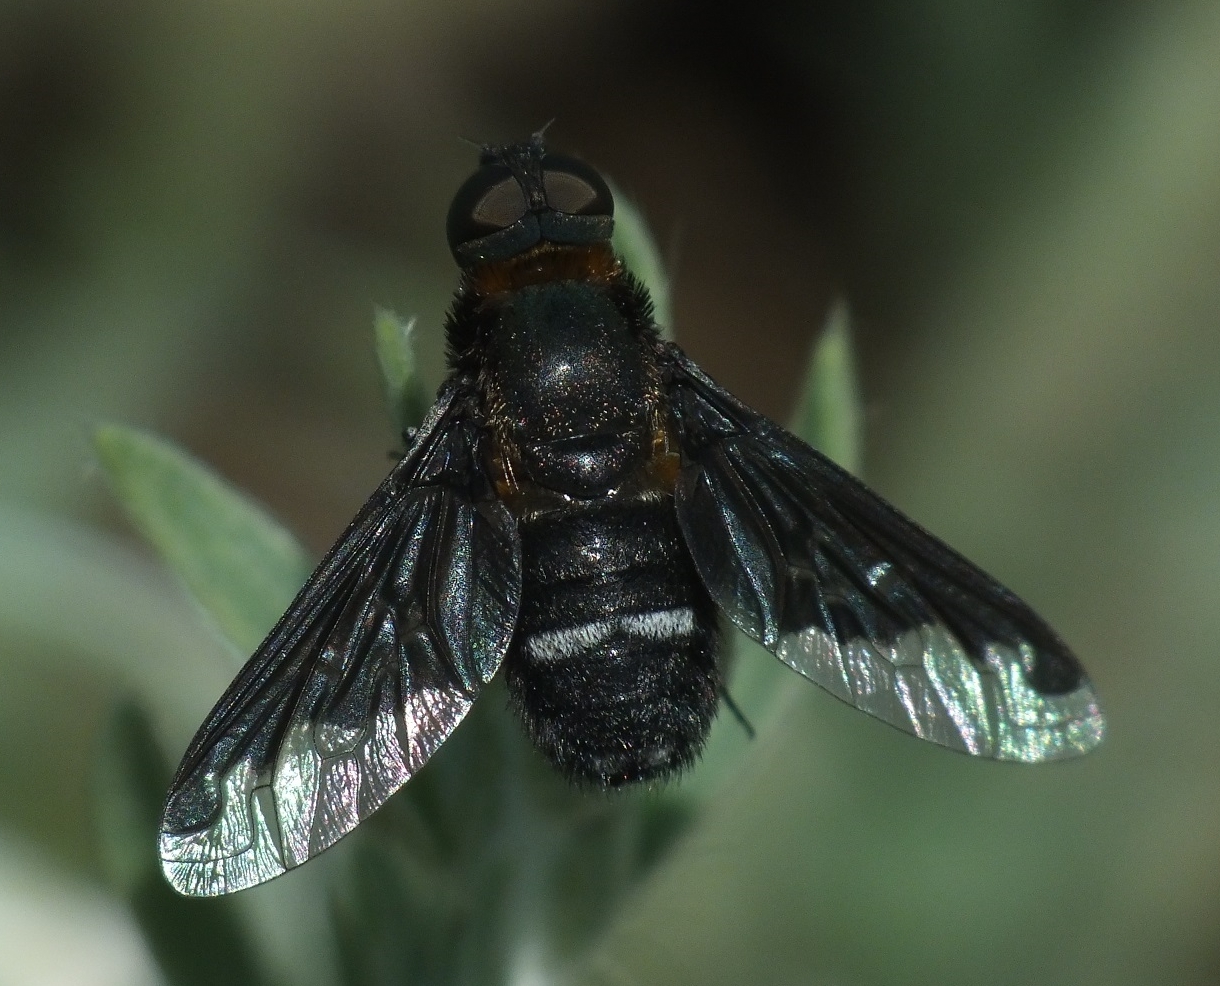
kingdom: Animalia
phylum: Arthropoda
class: Insecta
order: Diptera
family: Bombyliidae
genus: Hemipenthes
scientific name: Hemipenthes velutina
